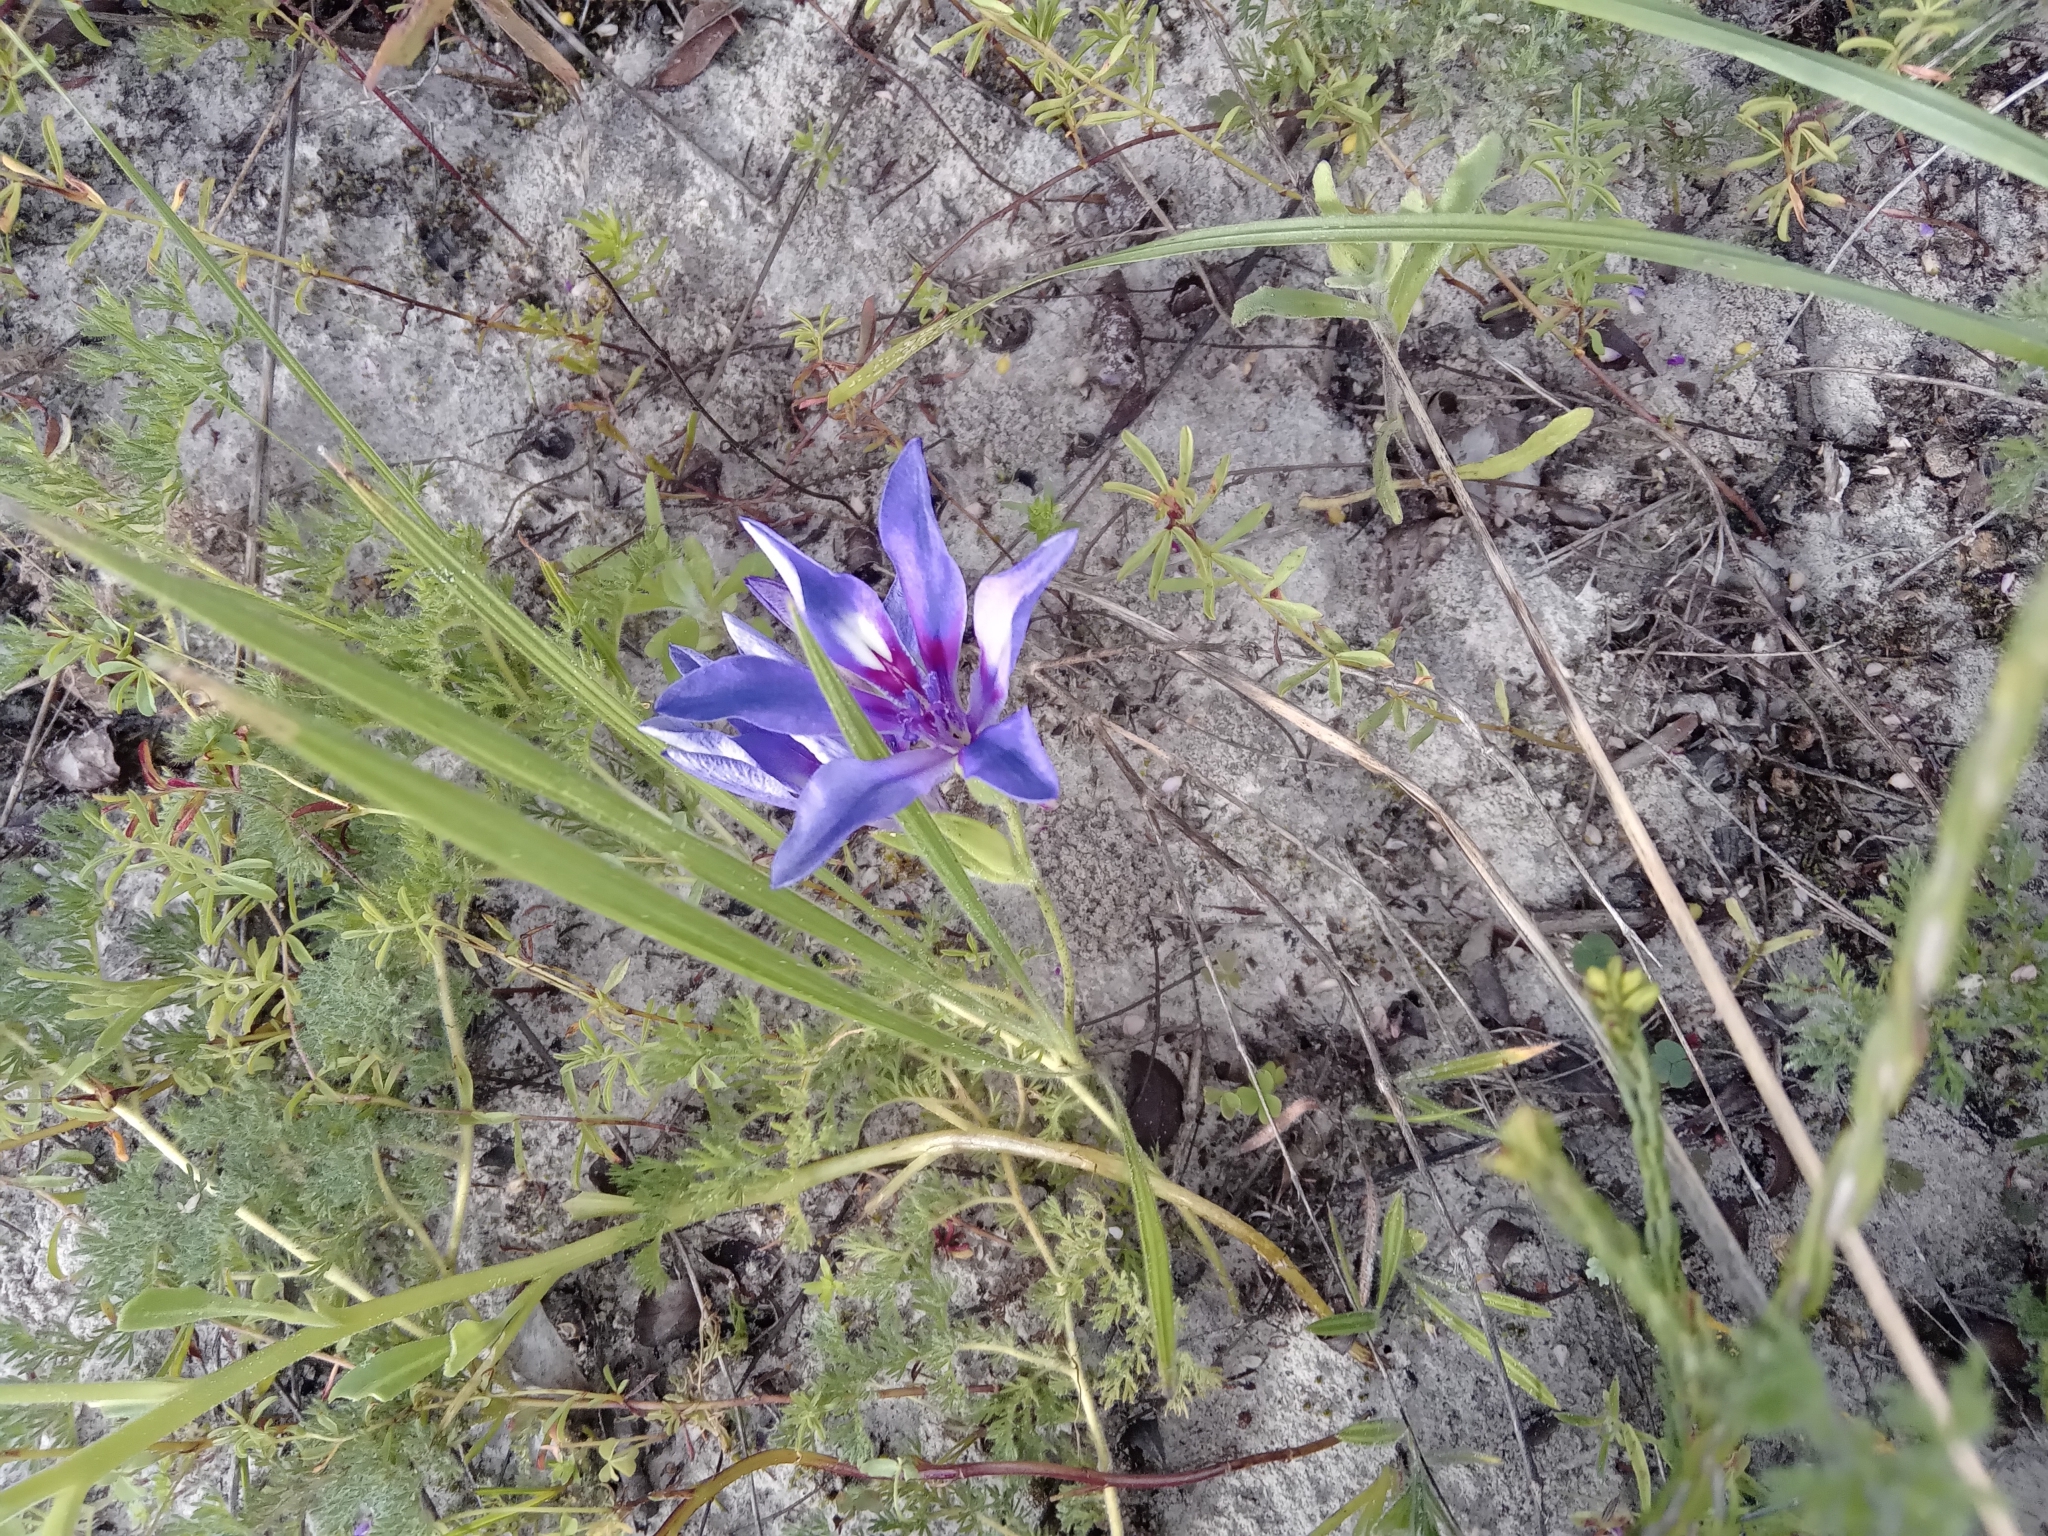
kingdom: Plantae
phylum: Tracheophyta
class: Liliopsida
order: Asparagales
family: Iridaceae
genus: Babiana
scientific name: Babiana ambigua
